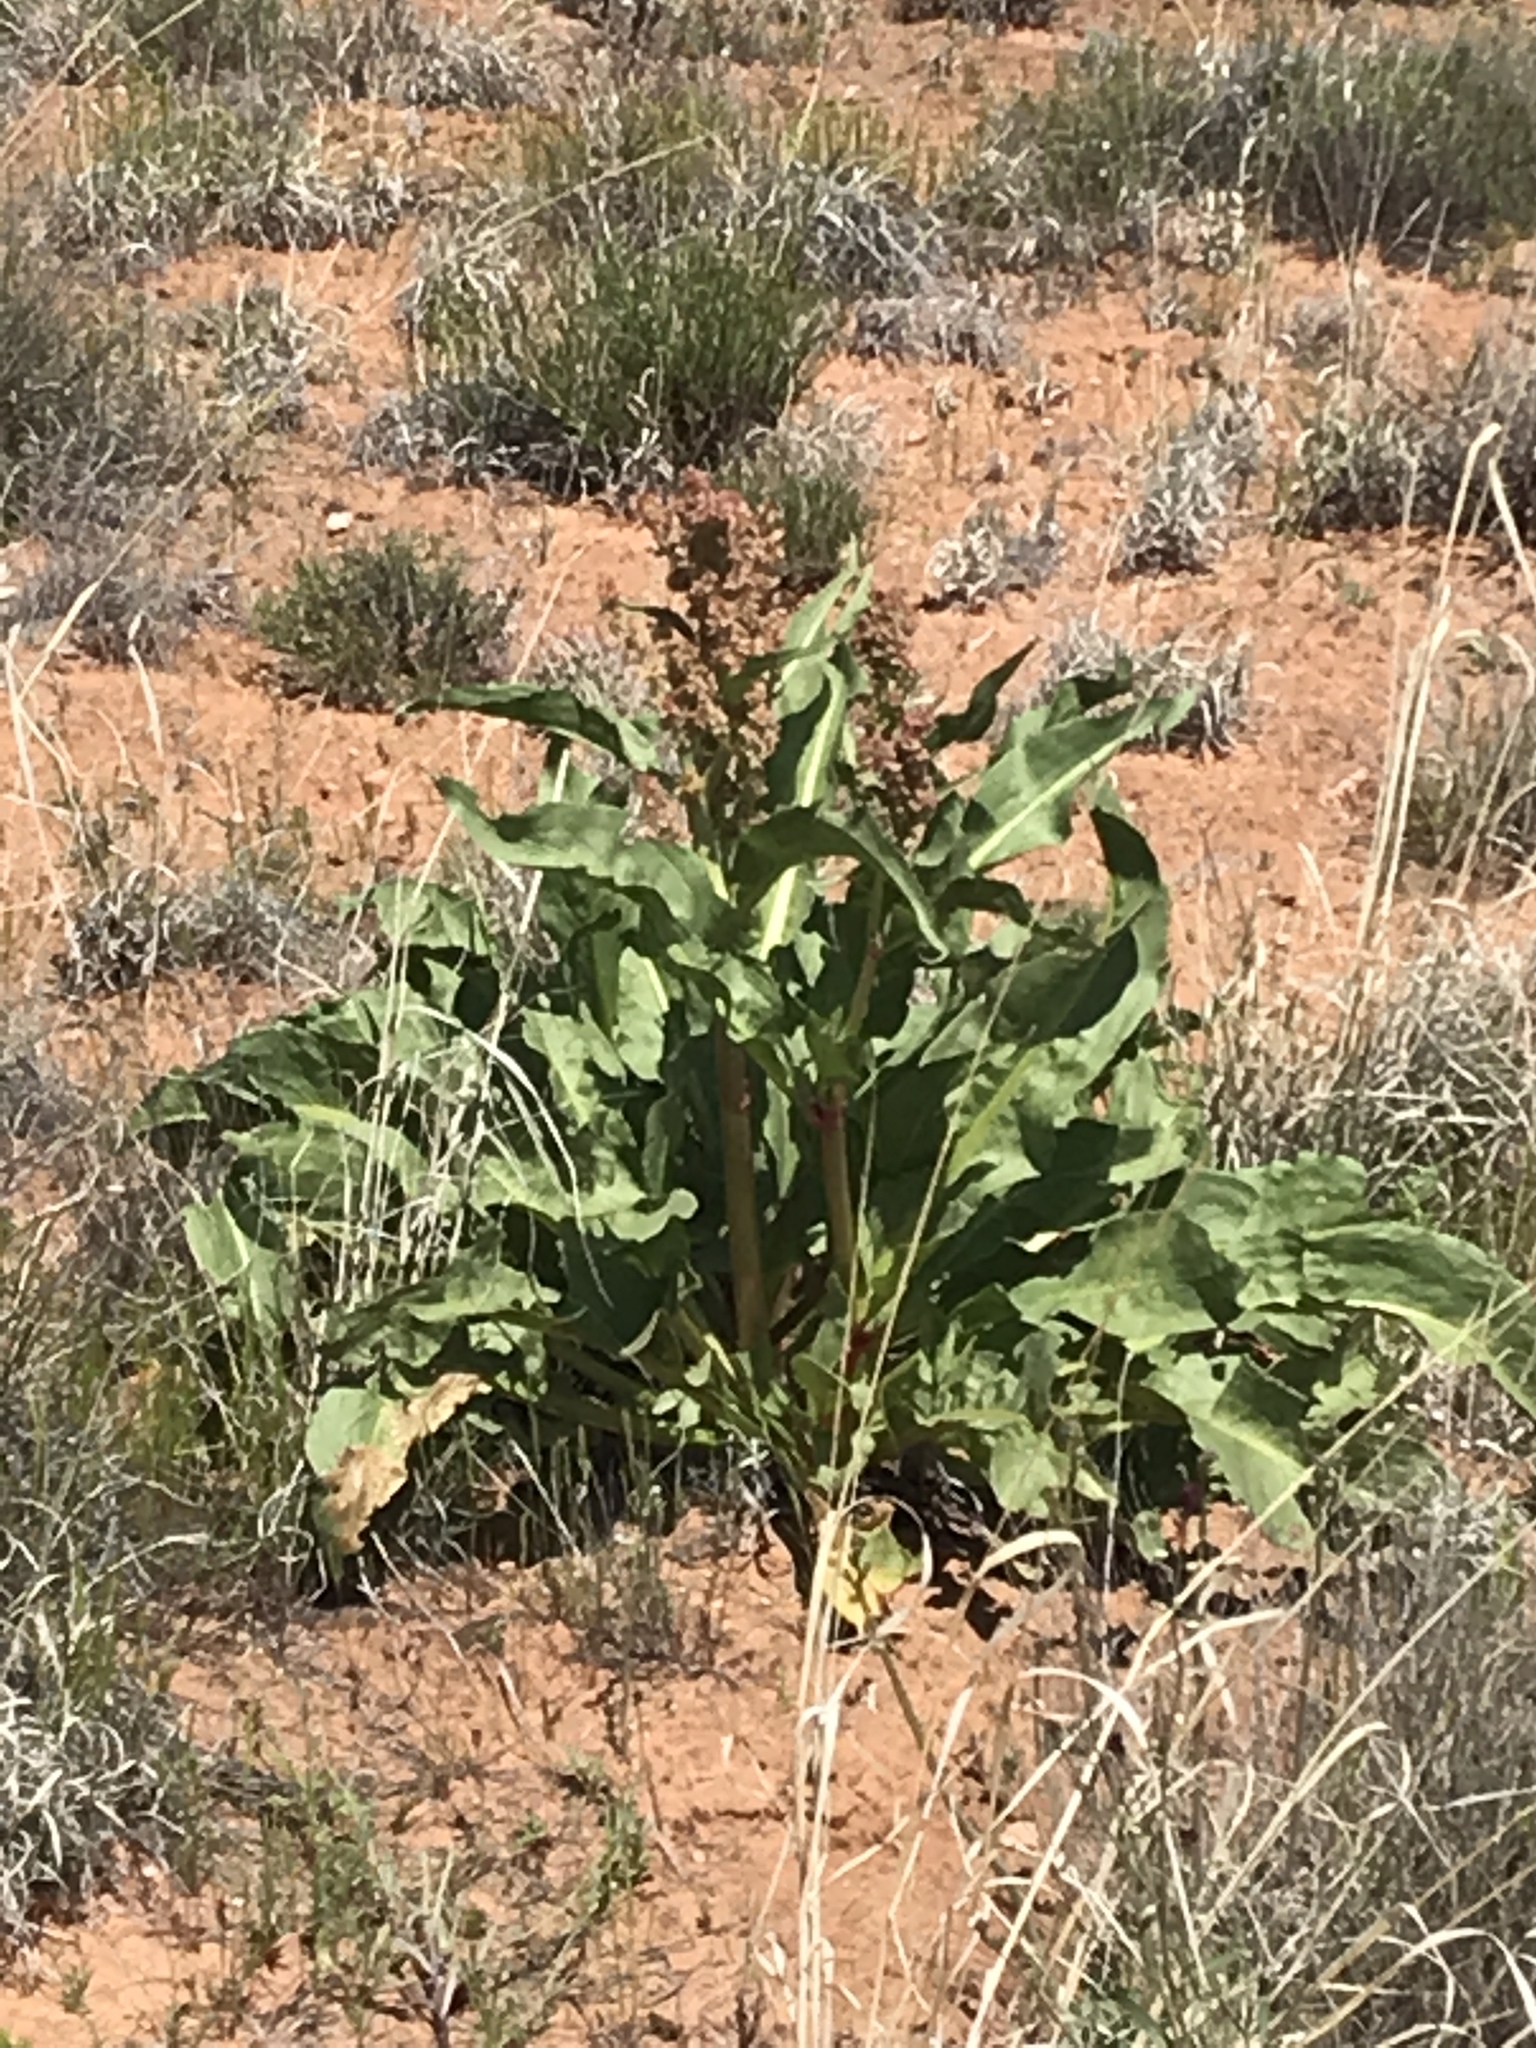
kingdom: Plantae
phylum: Tracheophyta
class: Magnoliopsida
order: Caryophyllales
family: Polygonaceae
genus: Rumex
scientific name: Rumex hymenosepalus
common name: Ganagra
